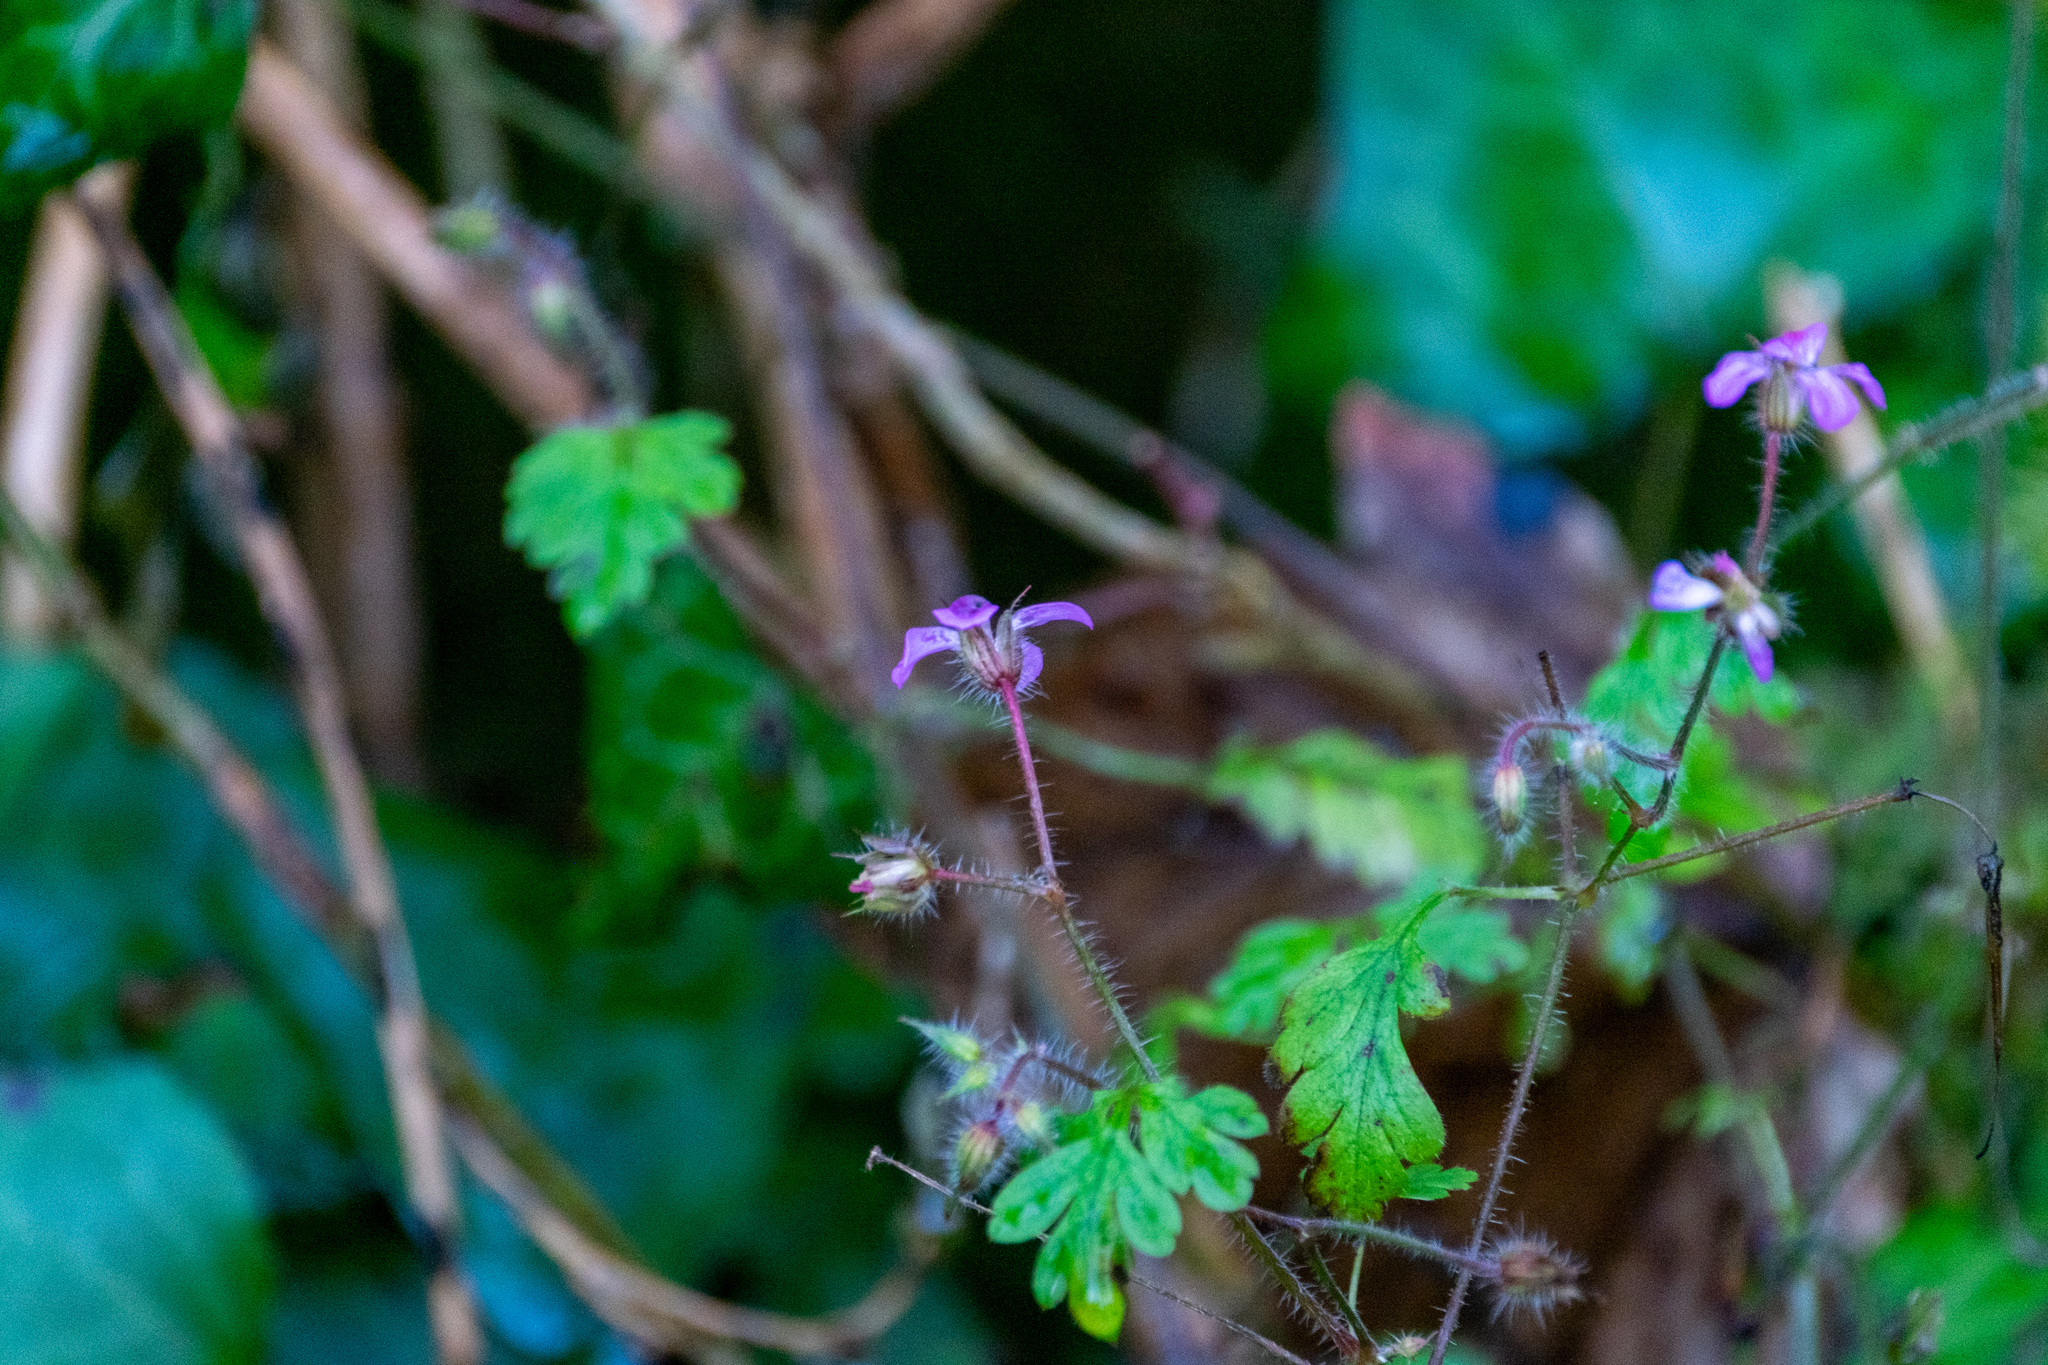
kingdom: Plantae
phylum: Tracheophyta
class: Magnoliopsida
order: Geraniales
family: Geraniaceae
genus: Geranium
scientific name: Geranium robertianum
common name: Herb-robert
